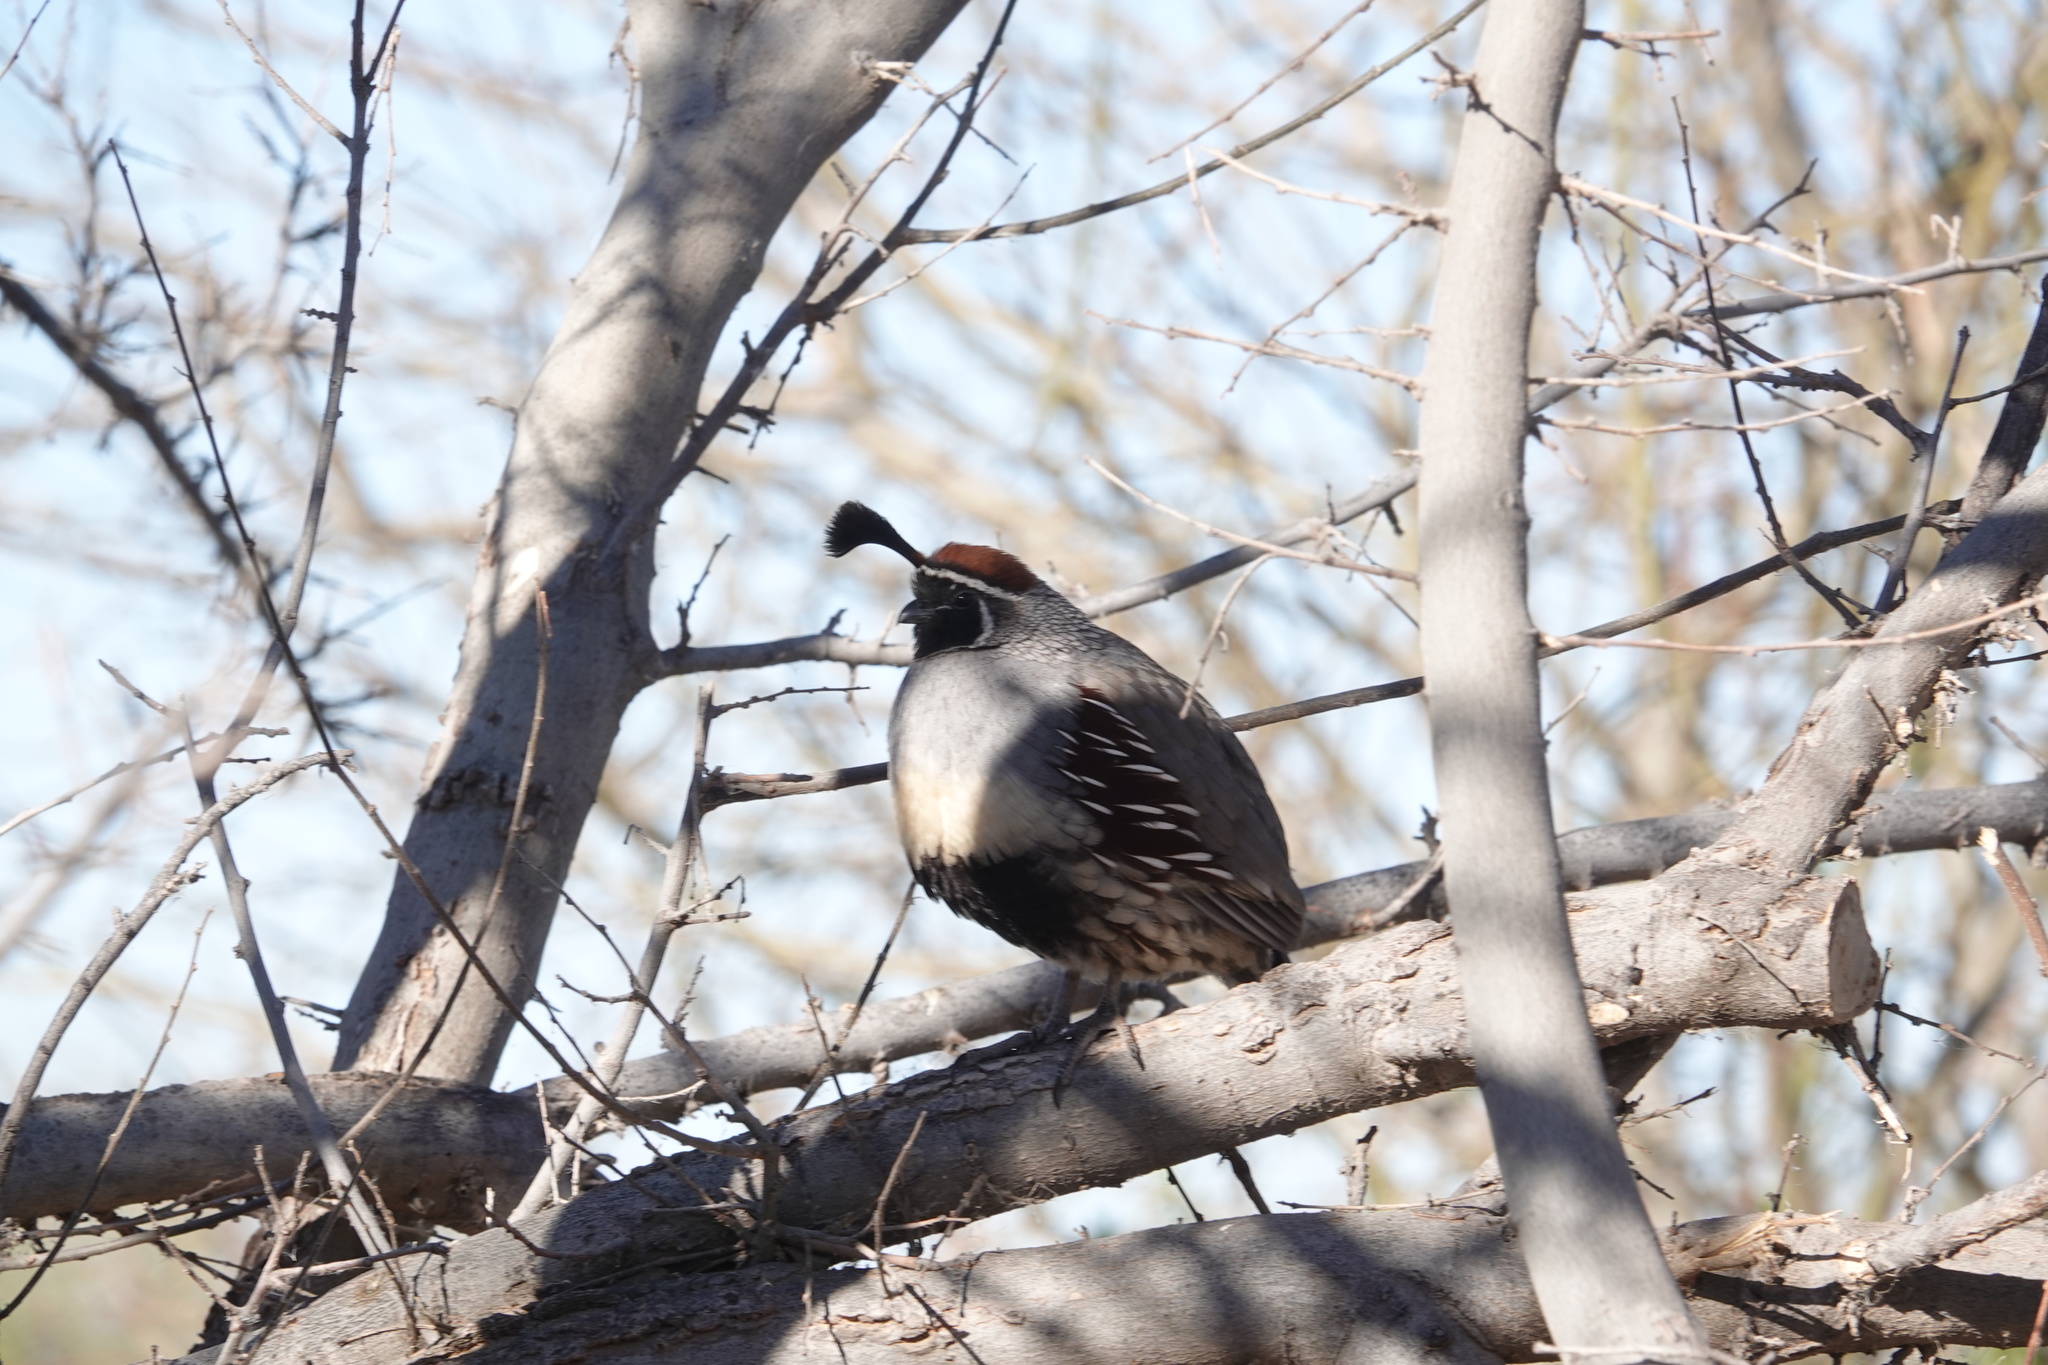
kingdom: Animalia
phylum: Chordata
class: Aves
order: Galliformes
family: Odontophoridae
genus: Callipepla
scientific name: Callipepla gambelii
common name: Gambel's quail
